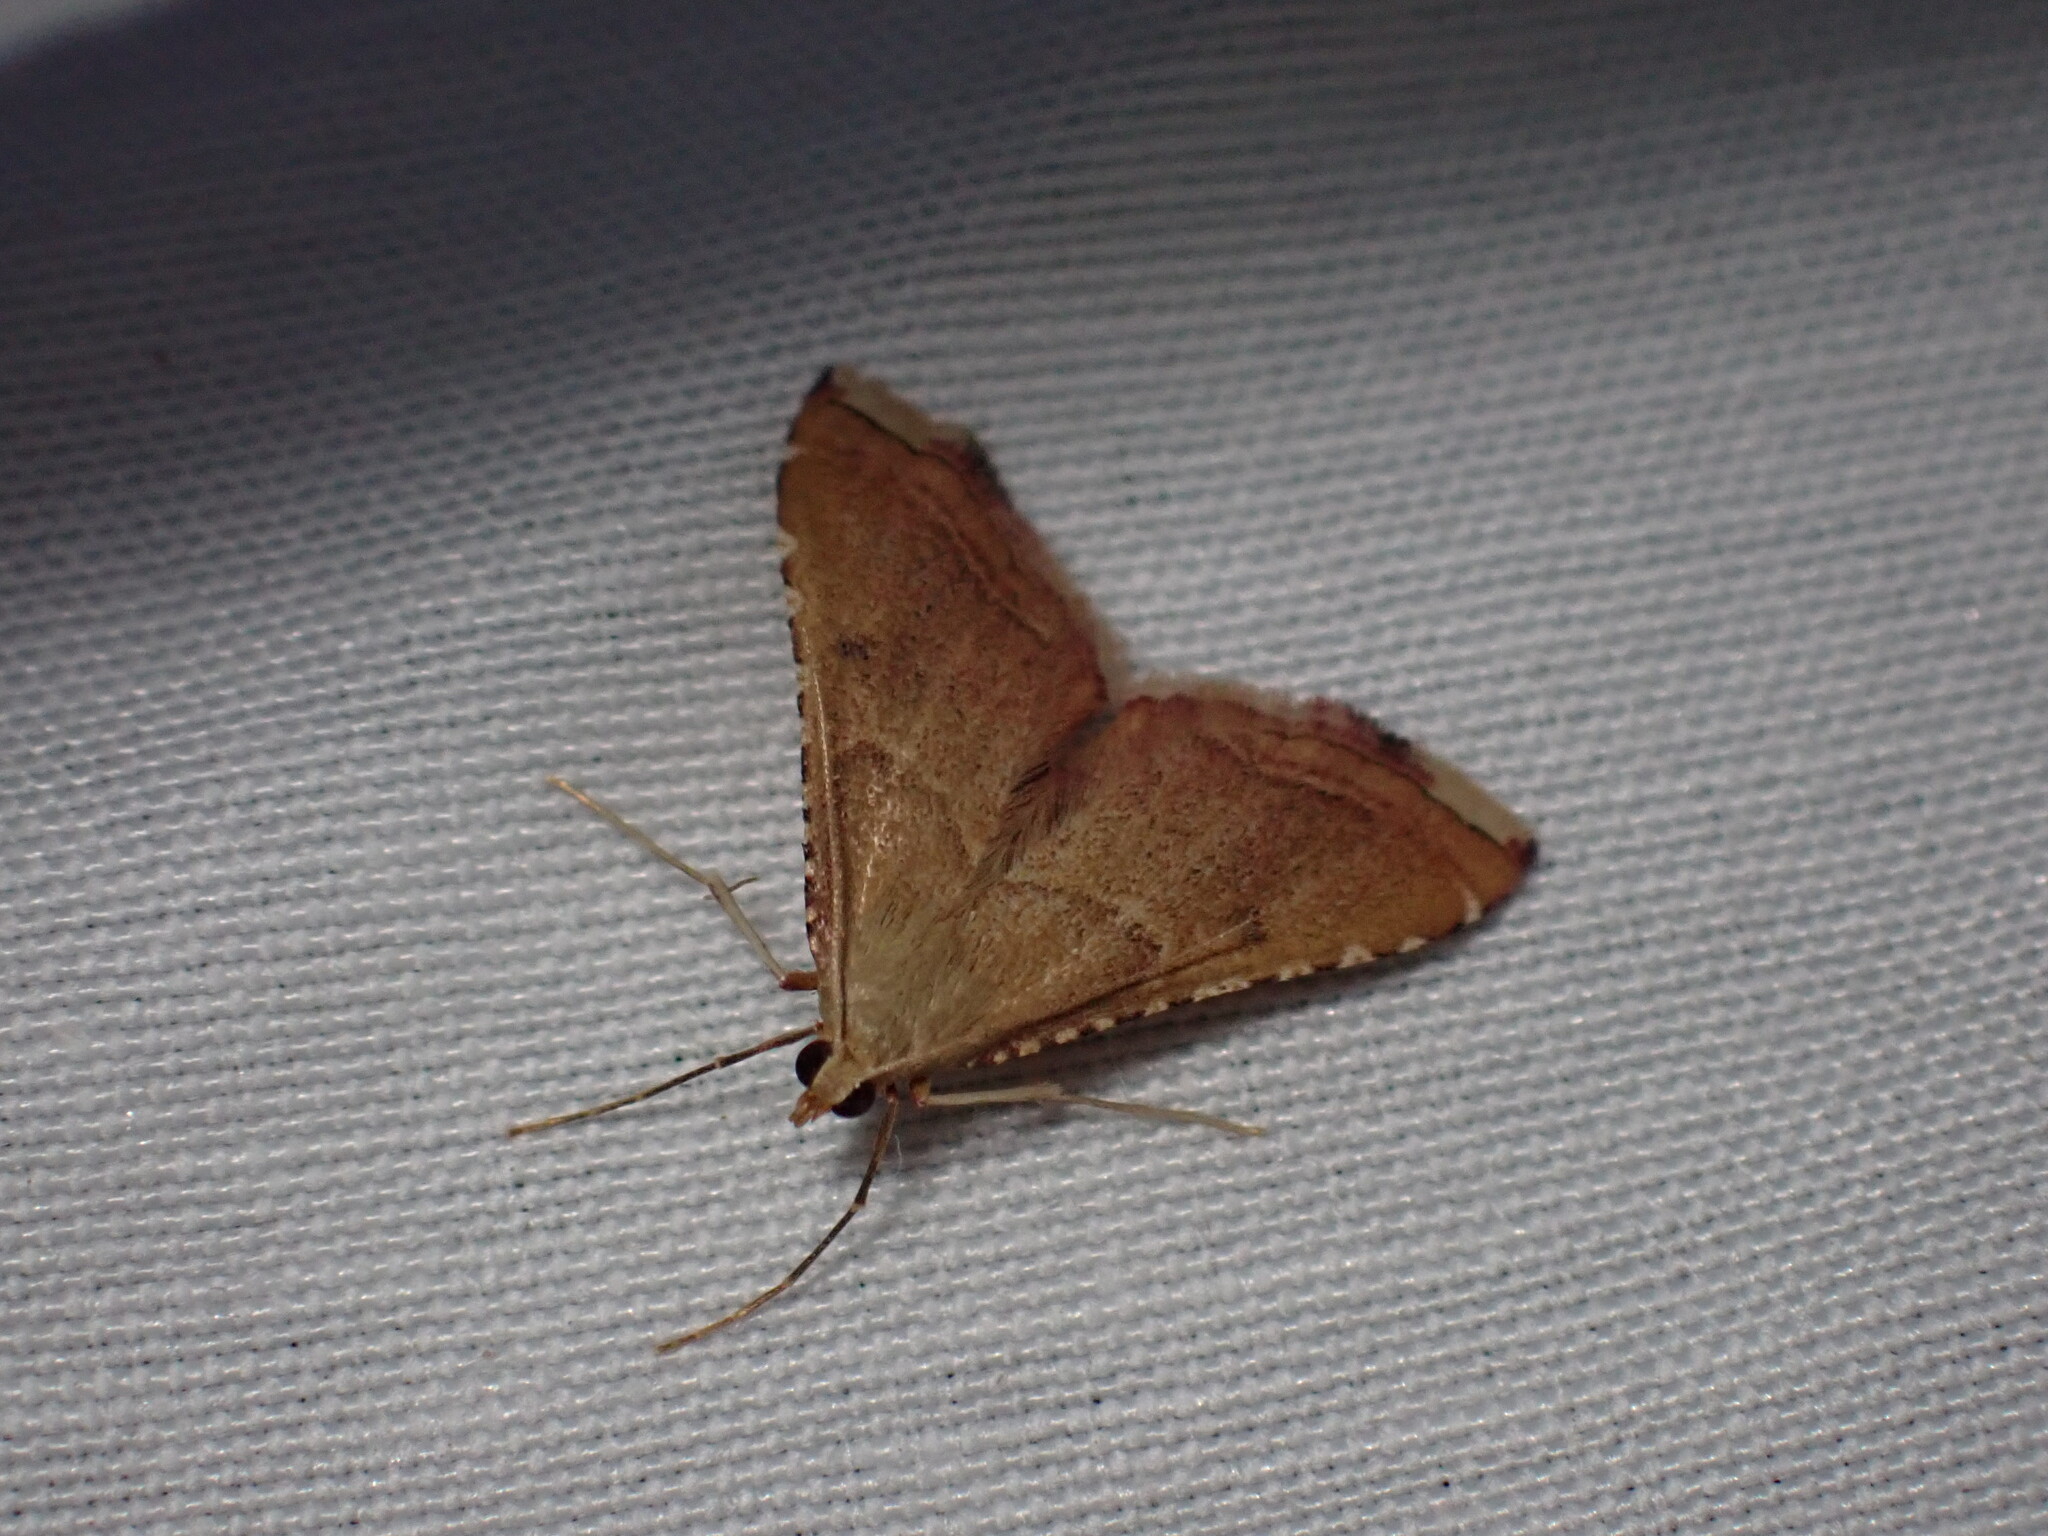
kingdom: Animalia
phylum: Arthropoda
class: Insecta
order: Lepidoptera
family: Pyralidae
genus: Endotricha
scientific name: Endotricha flammealis
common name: Rosy tabby
